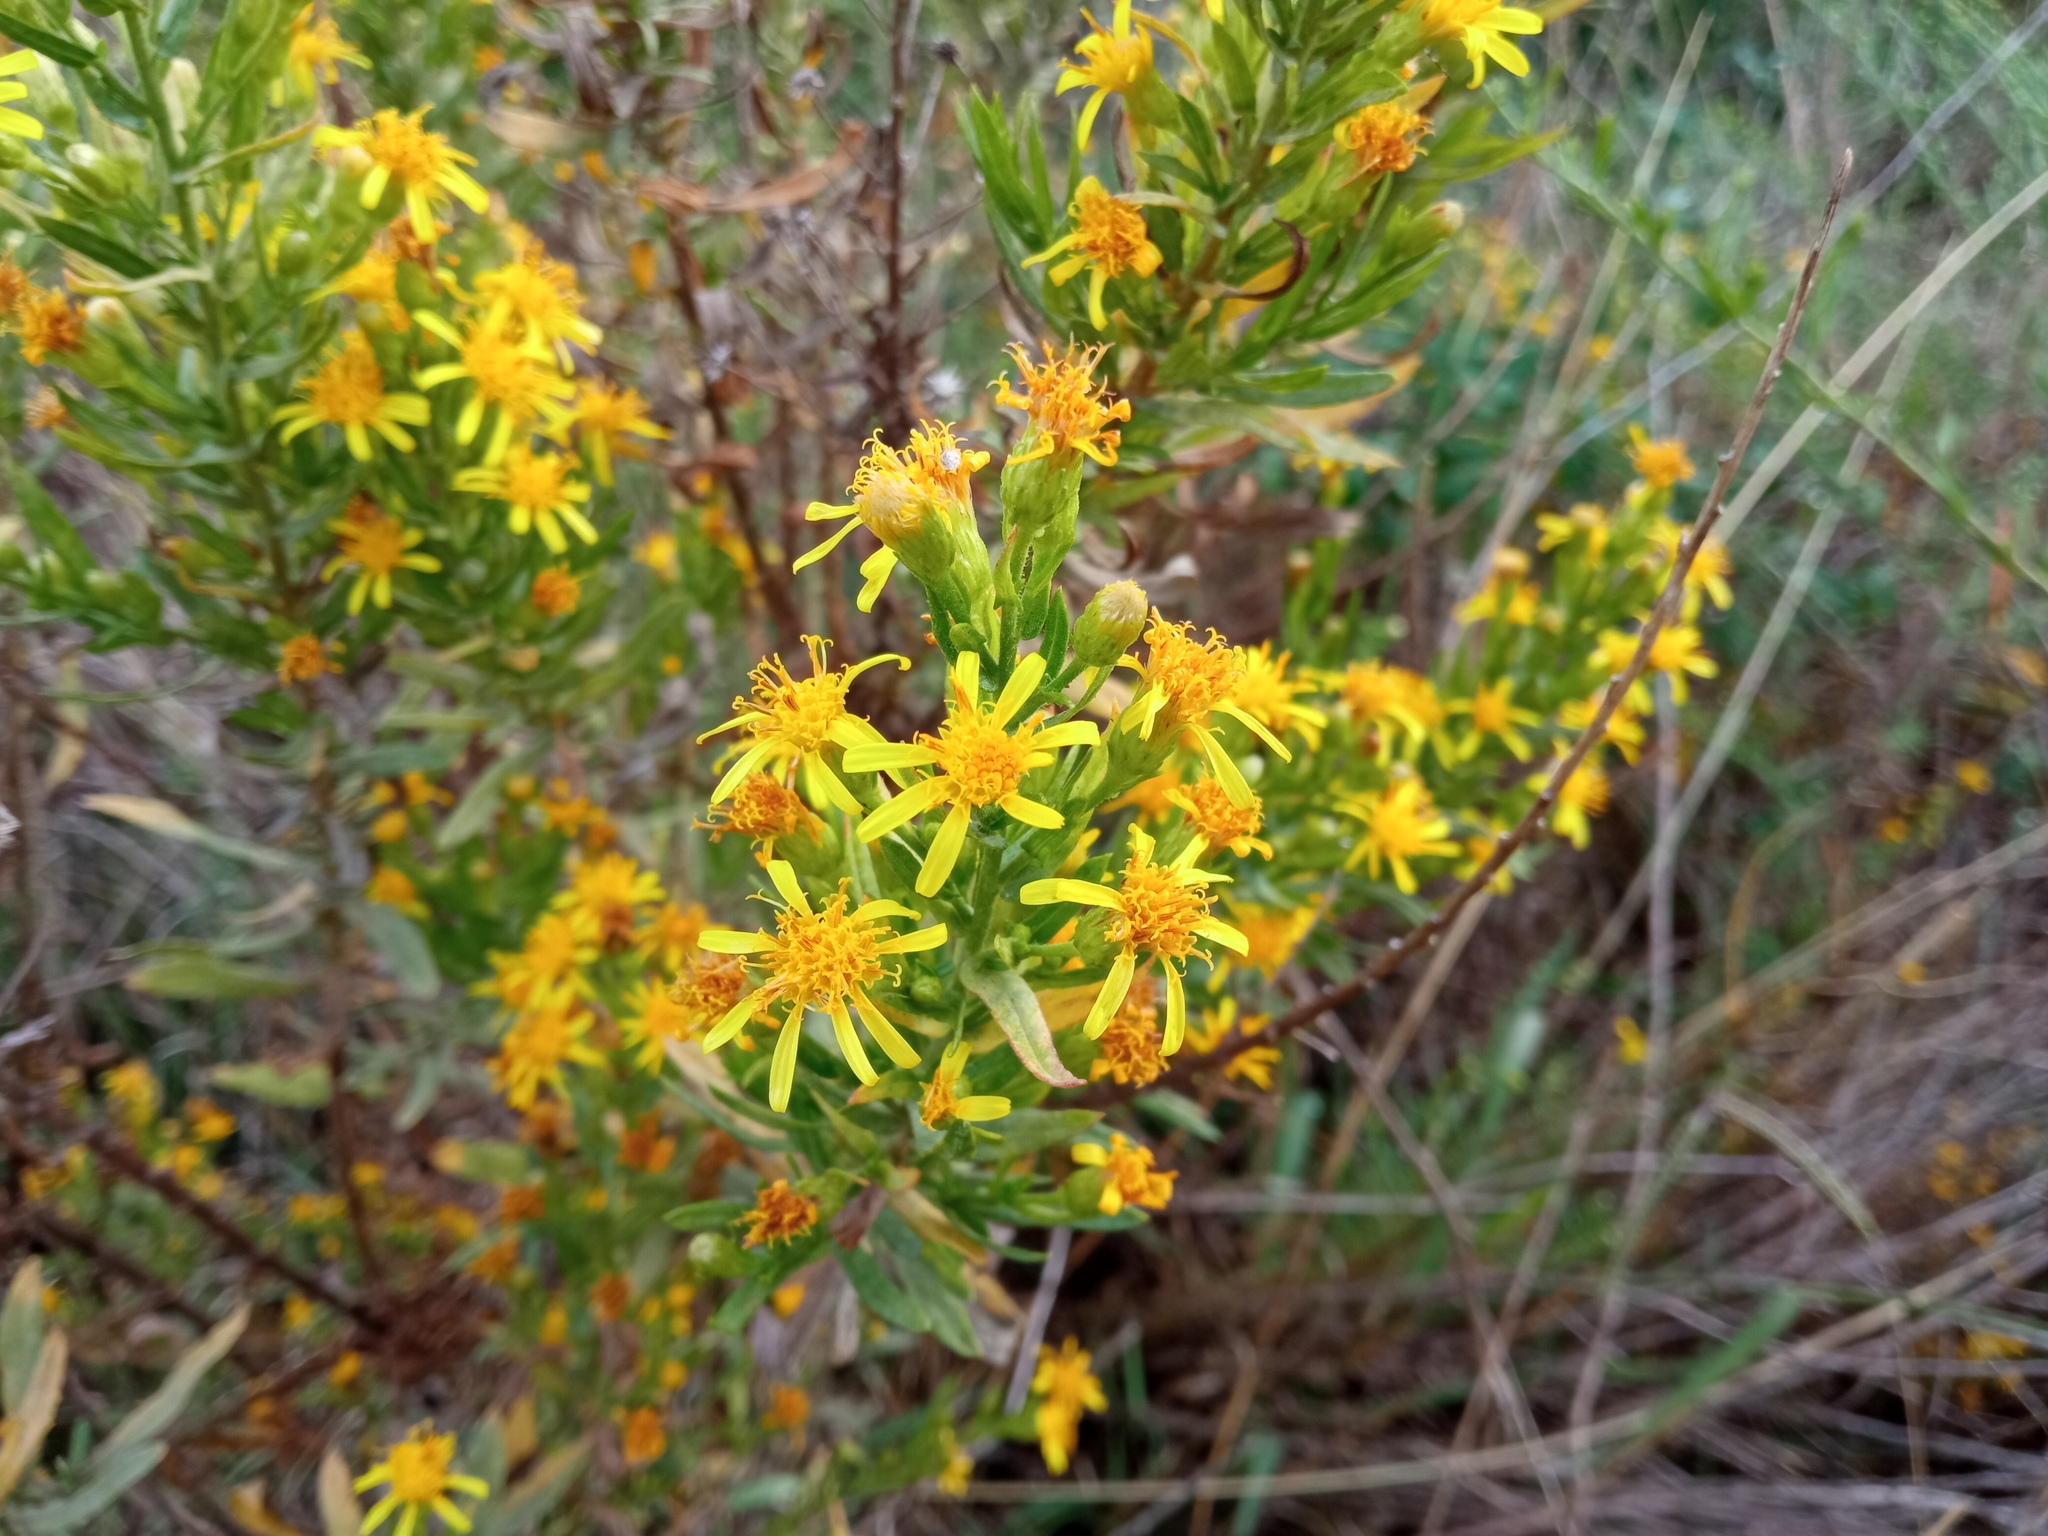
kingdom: Plantae
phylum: Tracheophyta
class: Magnoliopsida
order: Asterales
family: Asteraceae
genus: Dittrichia
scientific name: Dittrichia viscosa
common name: Woody fleabane
